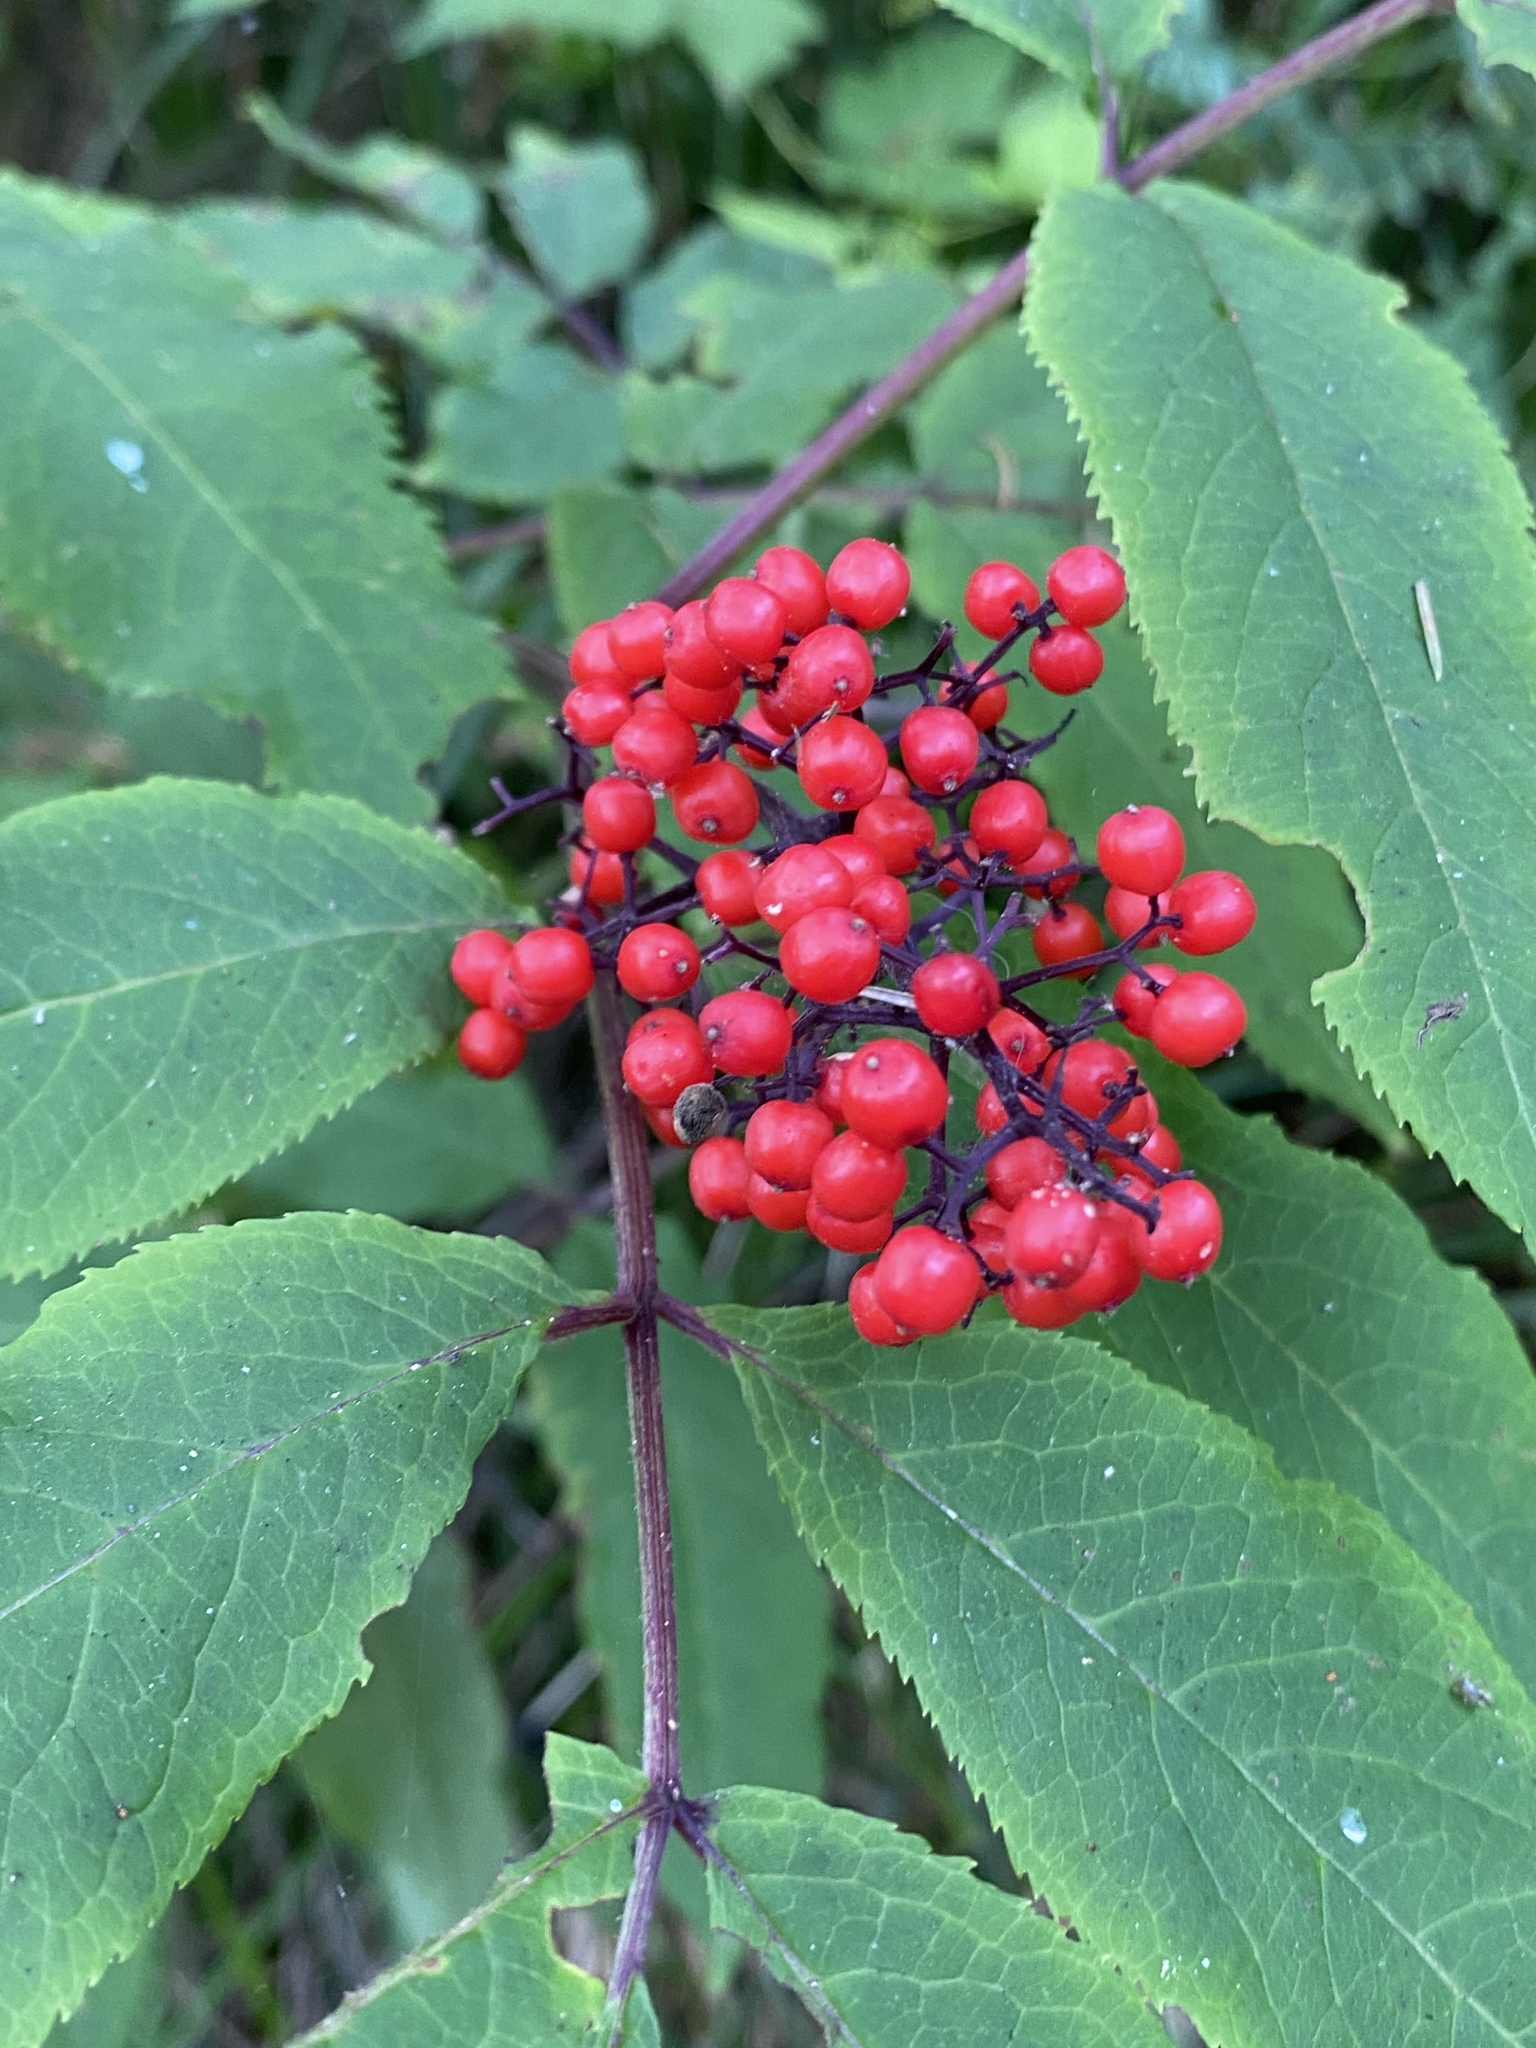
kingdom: Plantae
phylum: Tracheophyta
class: Magnoliopsida
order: Dipsacales
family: Viburnaceae
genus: Sambucus
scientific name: Sambucus racemosa
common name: Red-berried elder
